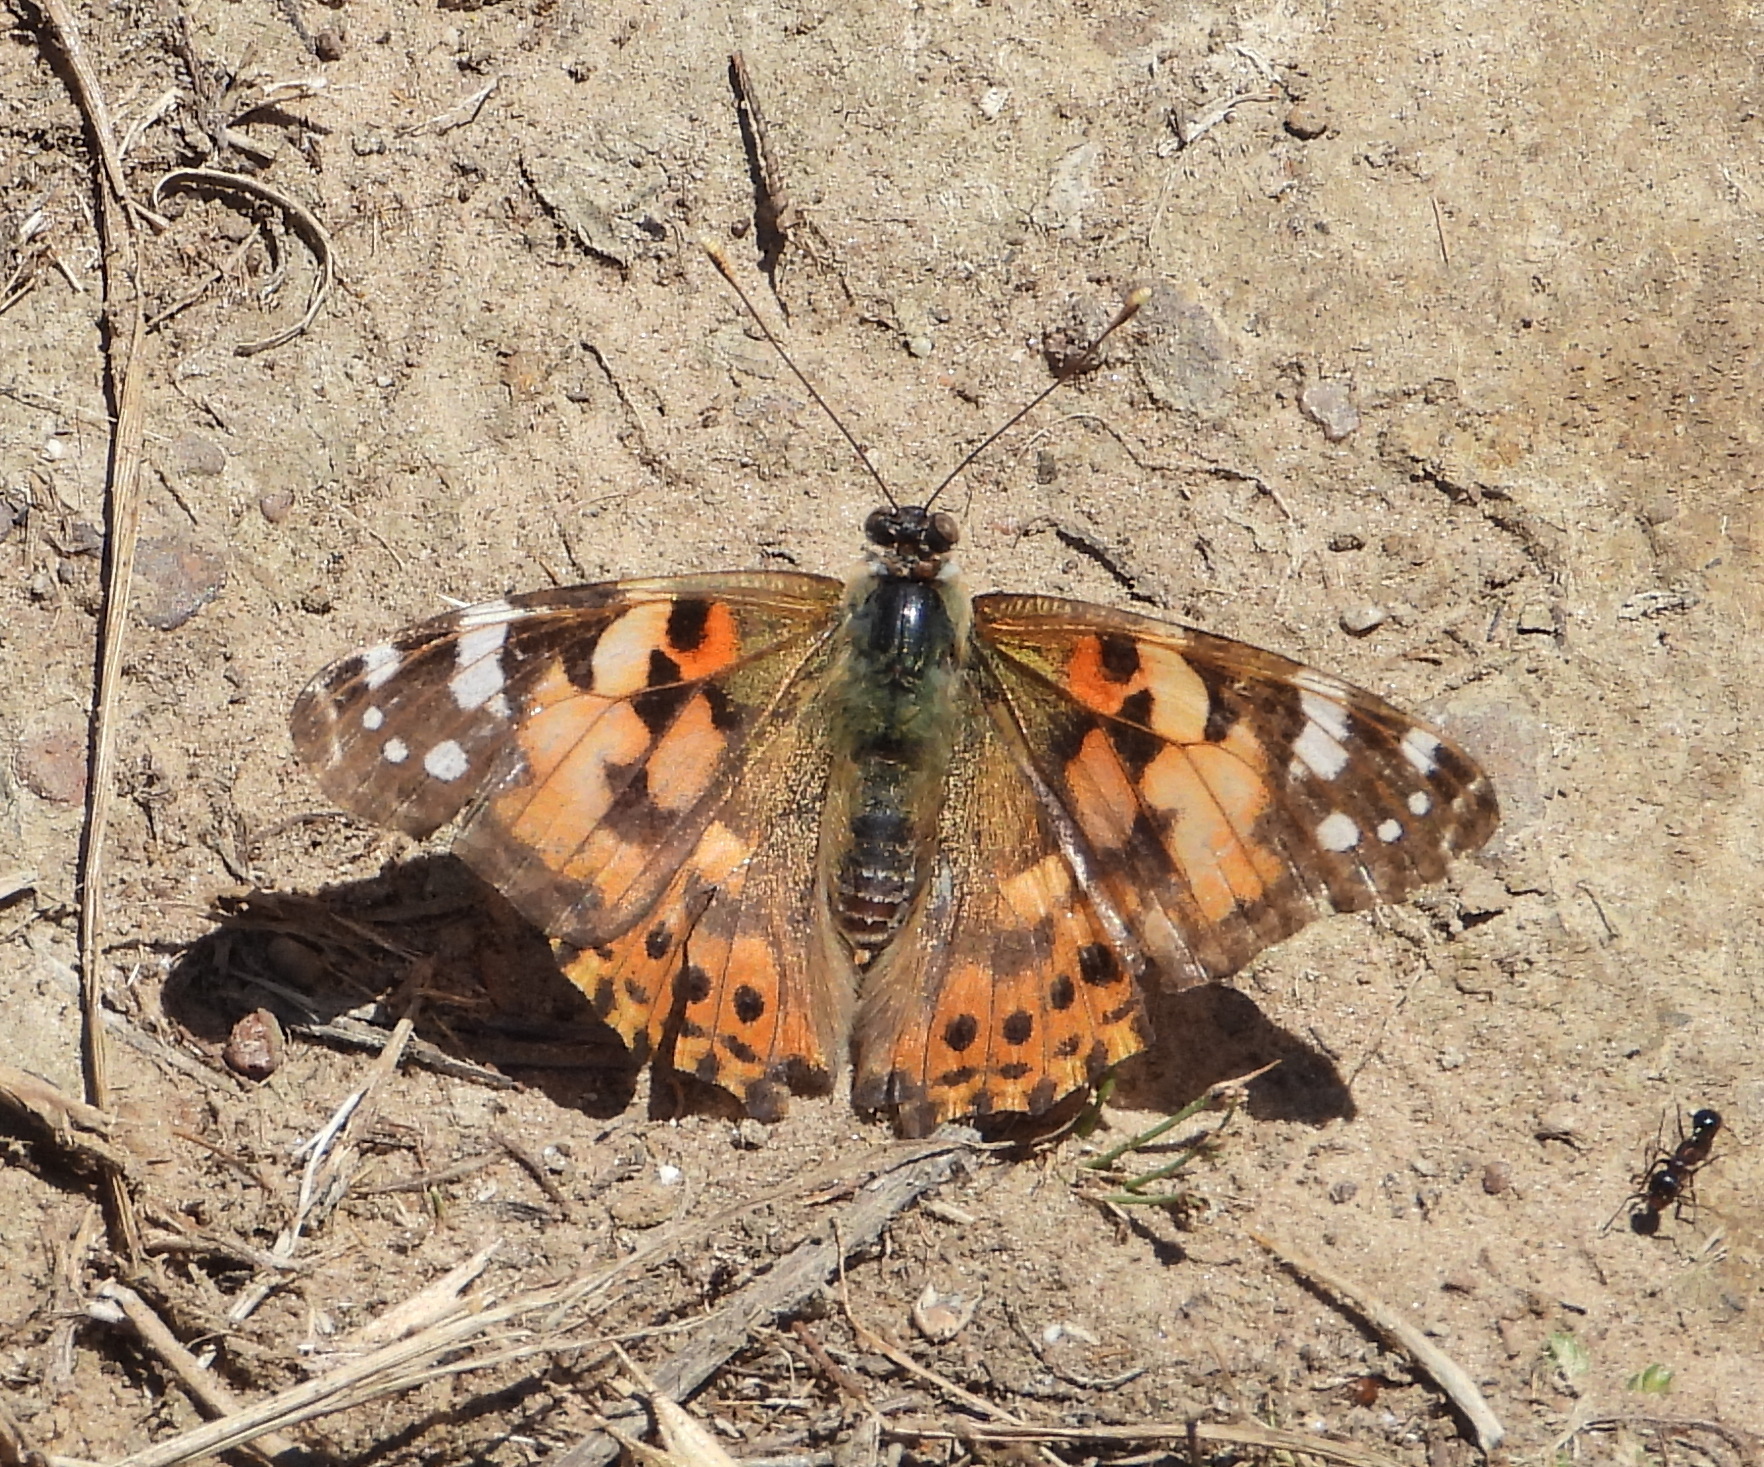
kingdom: Animalia
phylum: Arthropoda
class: Insecta
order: Lepidoptera
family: Nymphalidae
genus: Vanessa
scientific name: Vanessa cardui
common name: Painted lady
